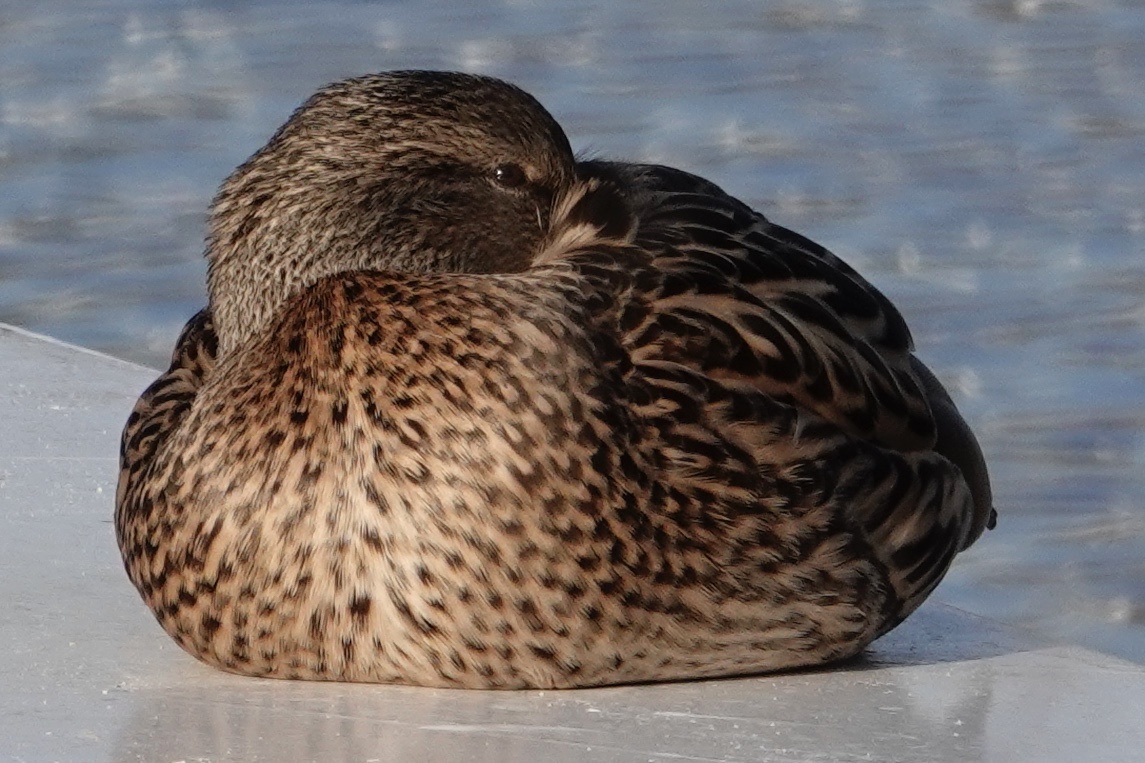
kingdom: Animalia
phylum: Chordata
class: Aves
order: Anseriformes
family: Anatidae
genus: Anas
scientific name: Anas platyrhynchos
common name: Mallard
